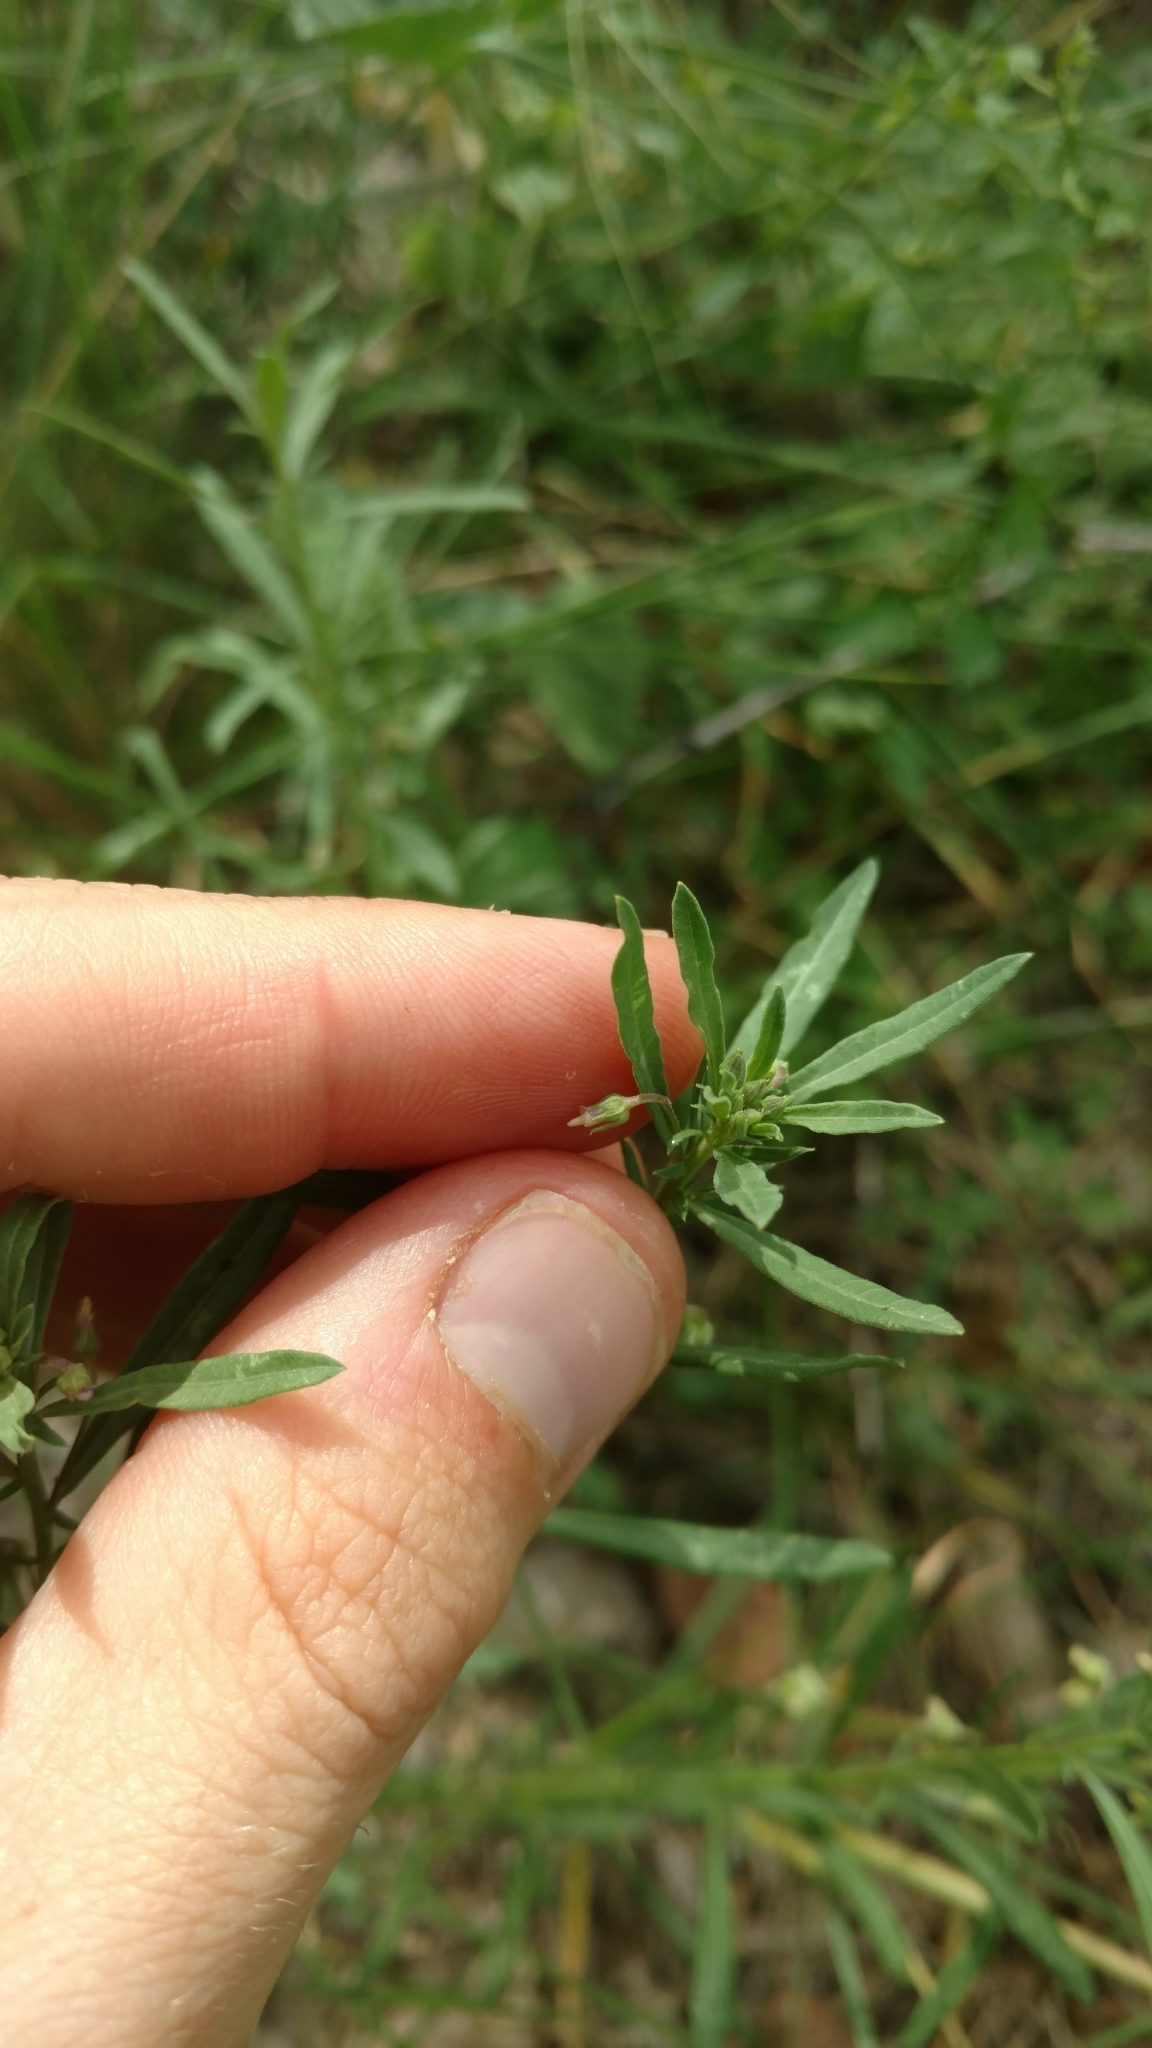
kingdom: Plantae
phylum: Tracheophyta
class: Magnoliopsida
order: Malpighiales
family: Violaceae
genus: Pombalia
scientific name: Pombalia verticillata
